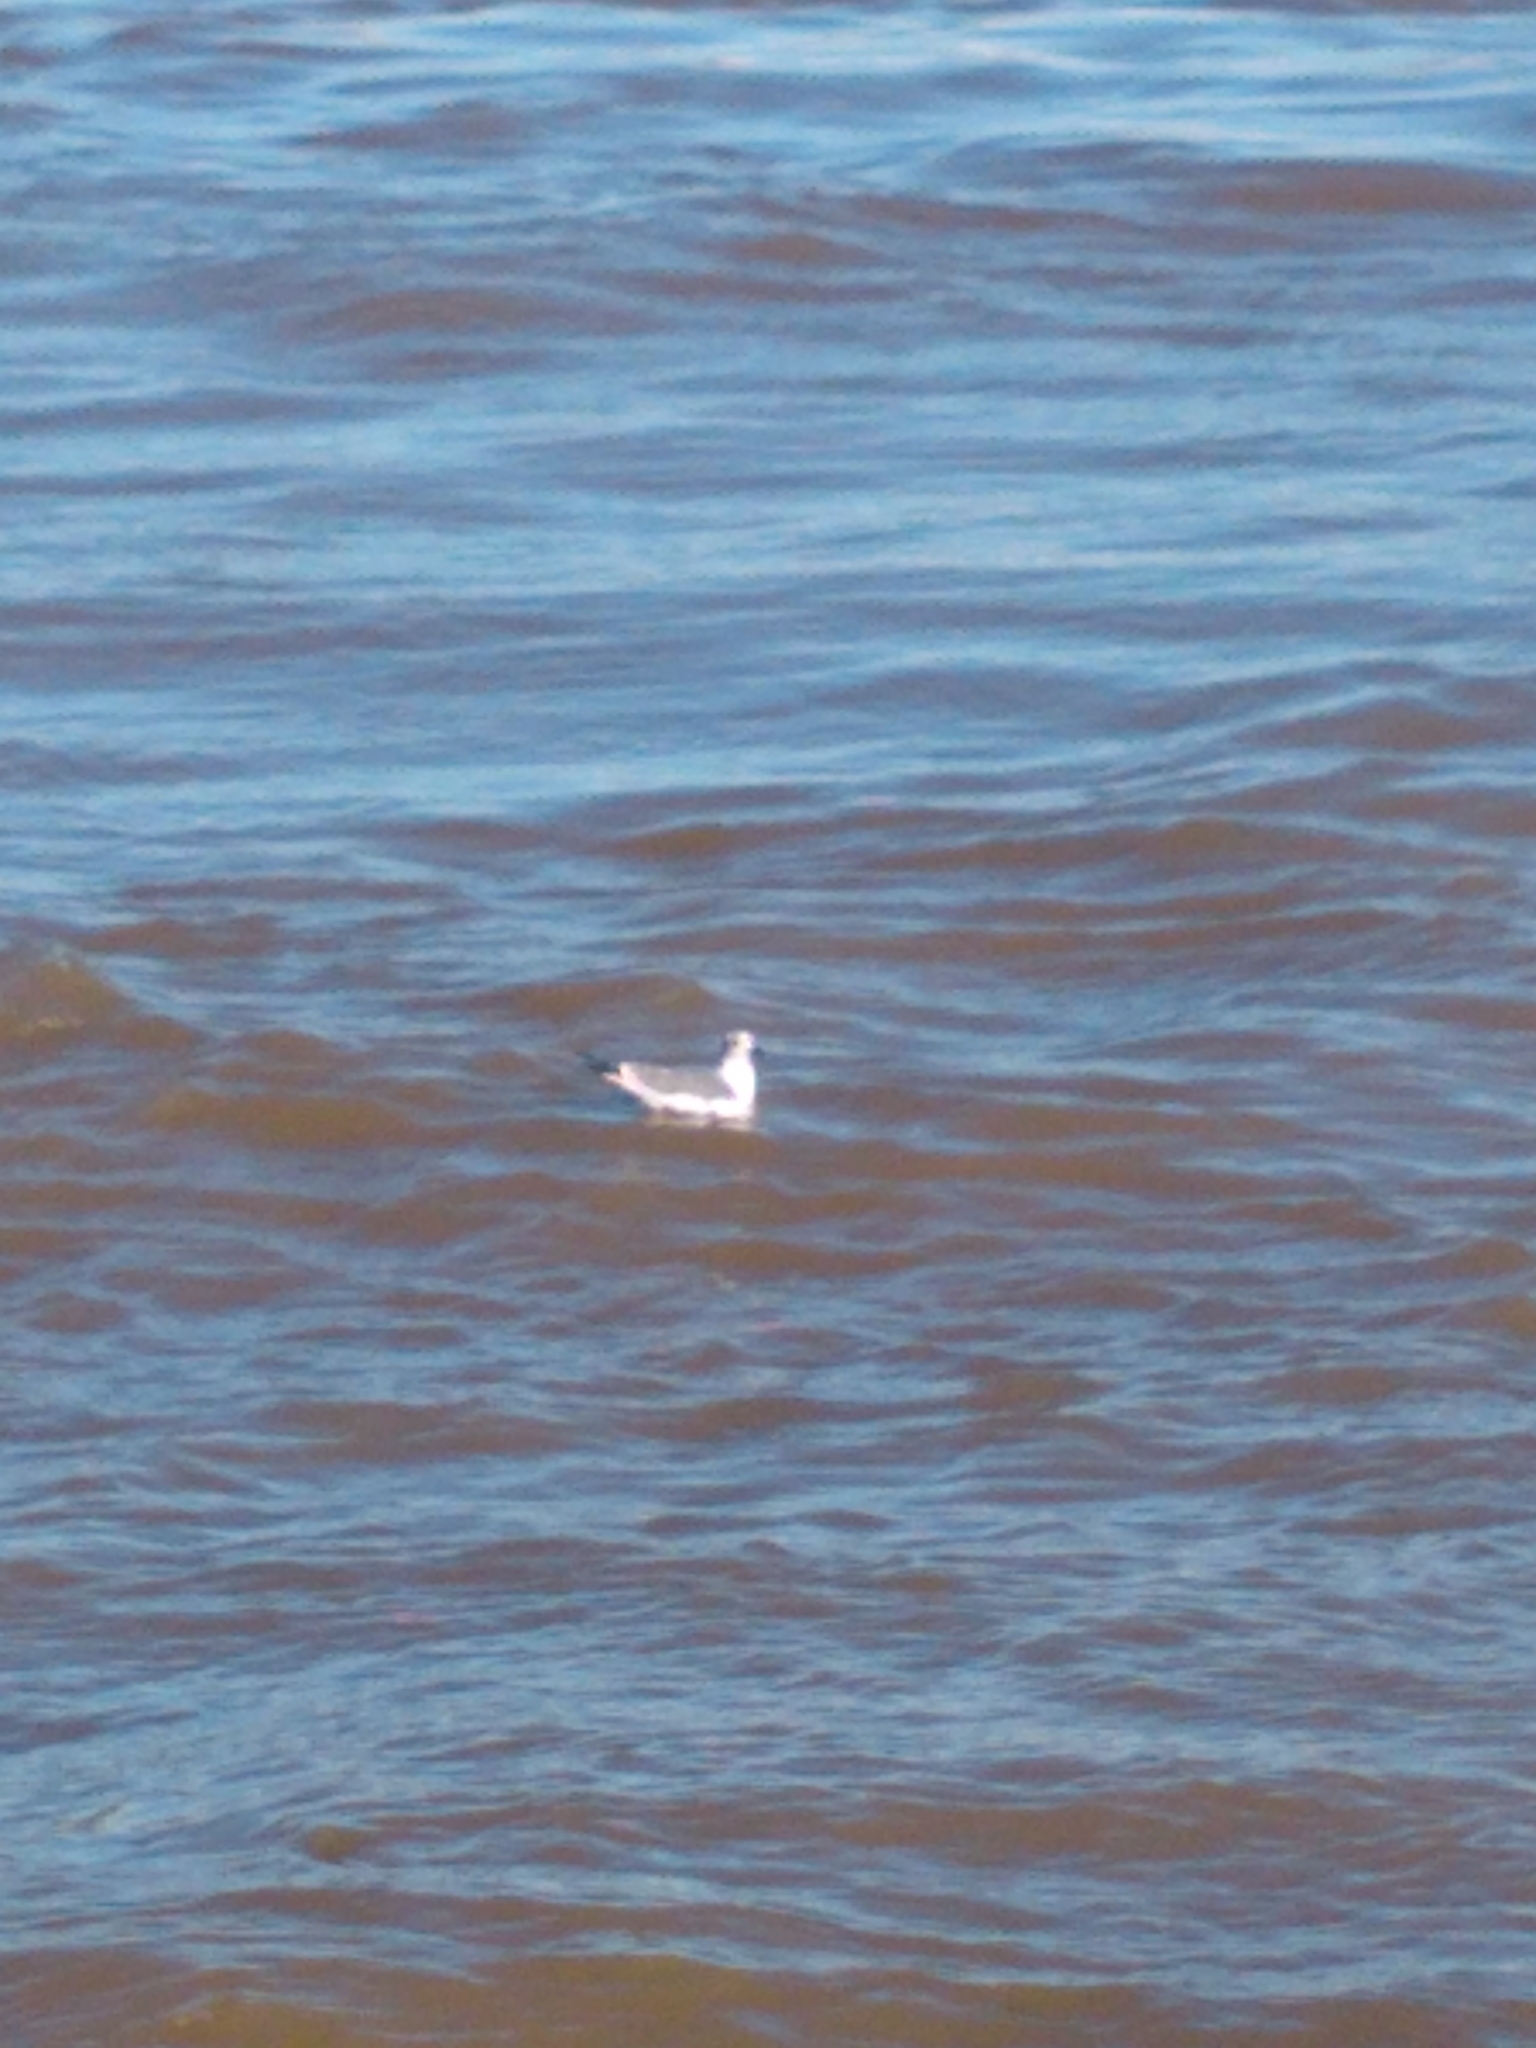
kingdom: Animalia
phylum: Chordata
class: Aves
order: Charadriiformes
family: Laridae
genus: Chroicocephalus
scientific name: Chroicocephalus philadelphia
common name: Bonaparte's gull
